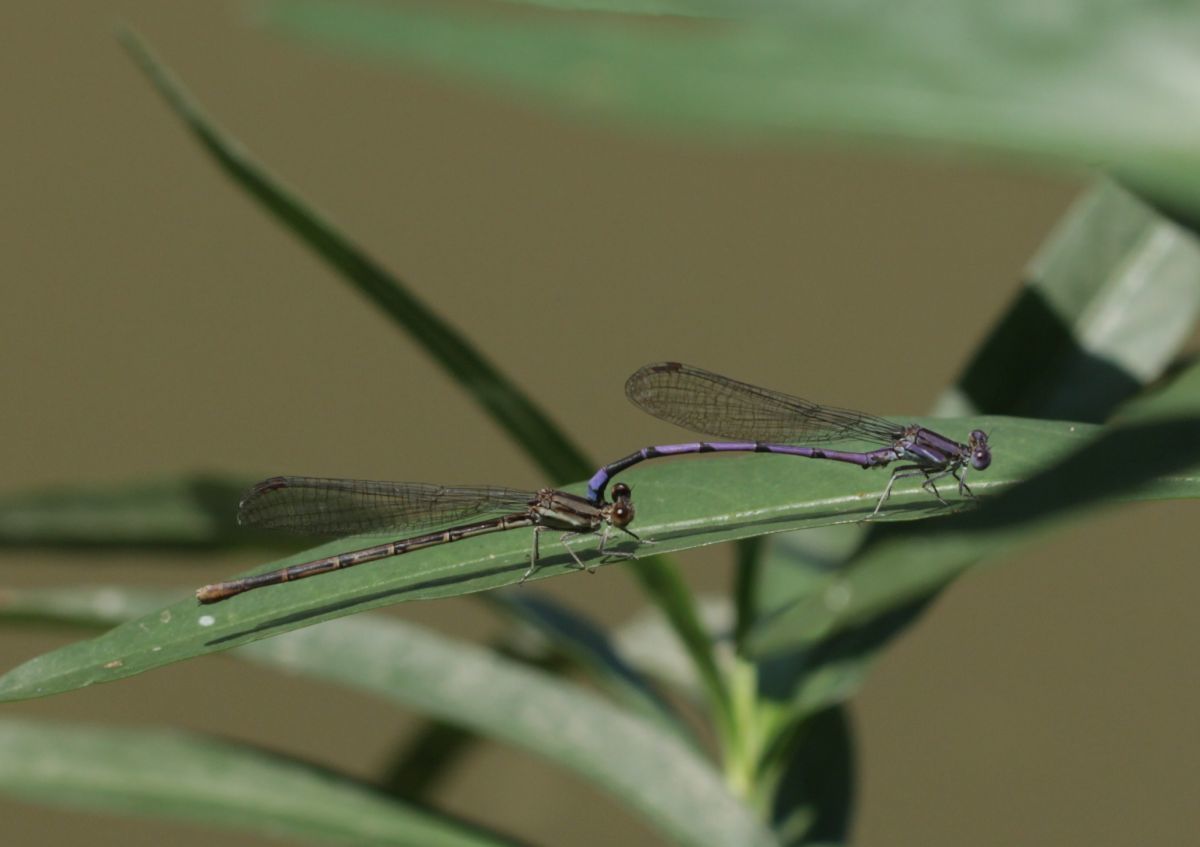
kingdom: Animalia
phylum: Arthropoda
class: Insecta
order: Odonata
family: Coenagrionidae
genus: Argia
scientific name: Argia fumipennis
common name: Variable dancer
